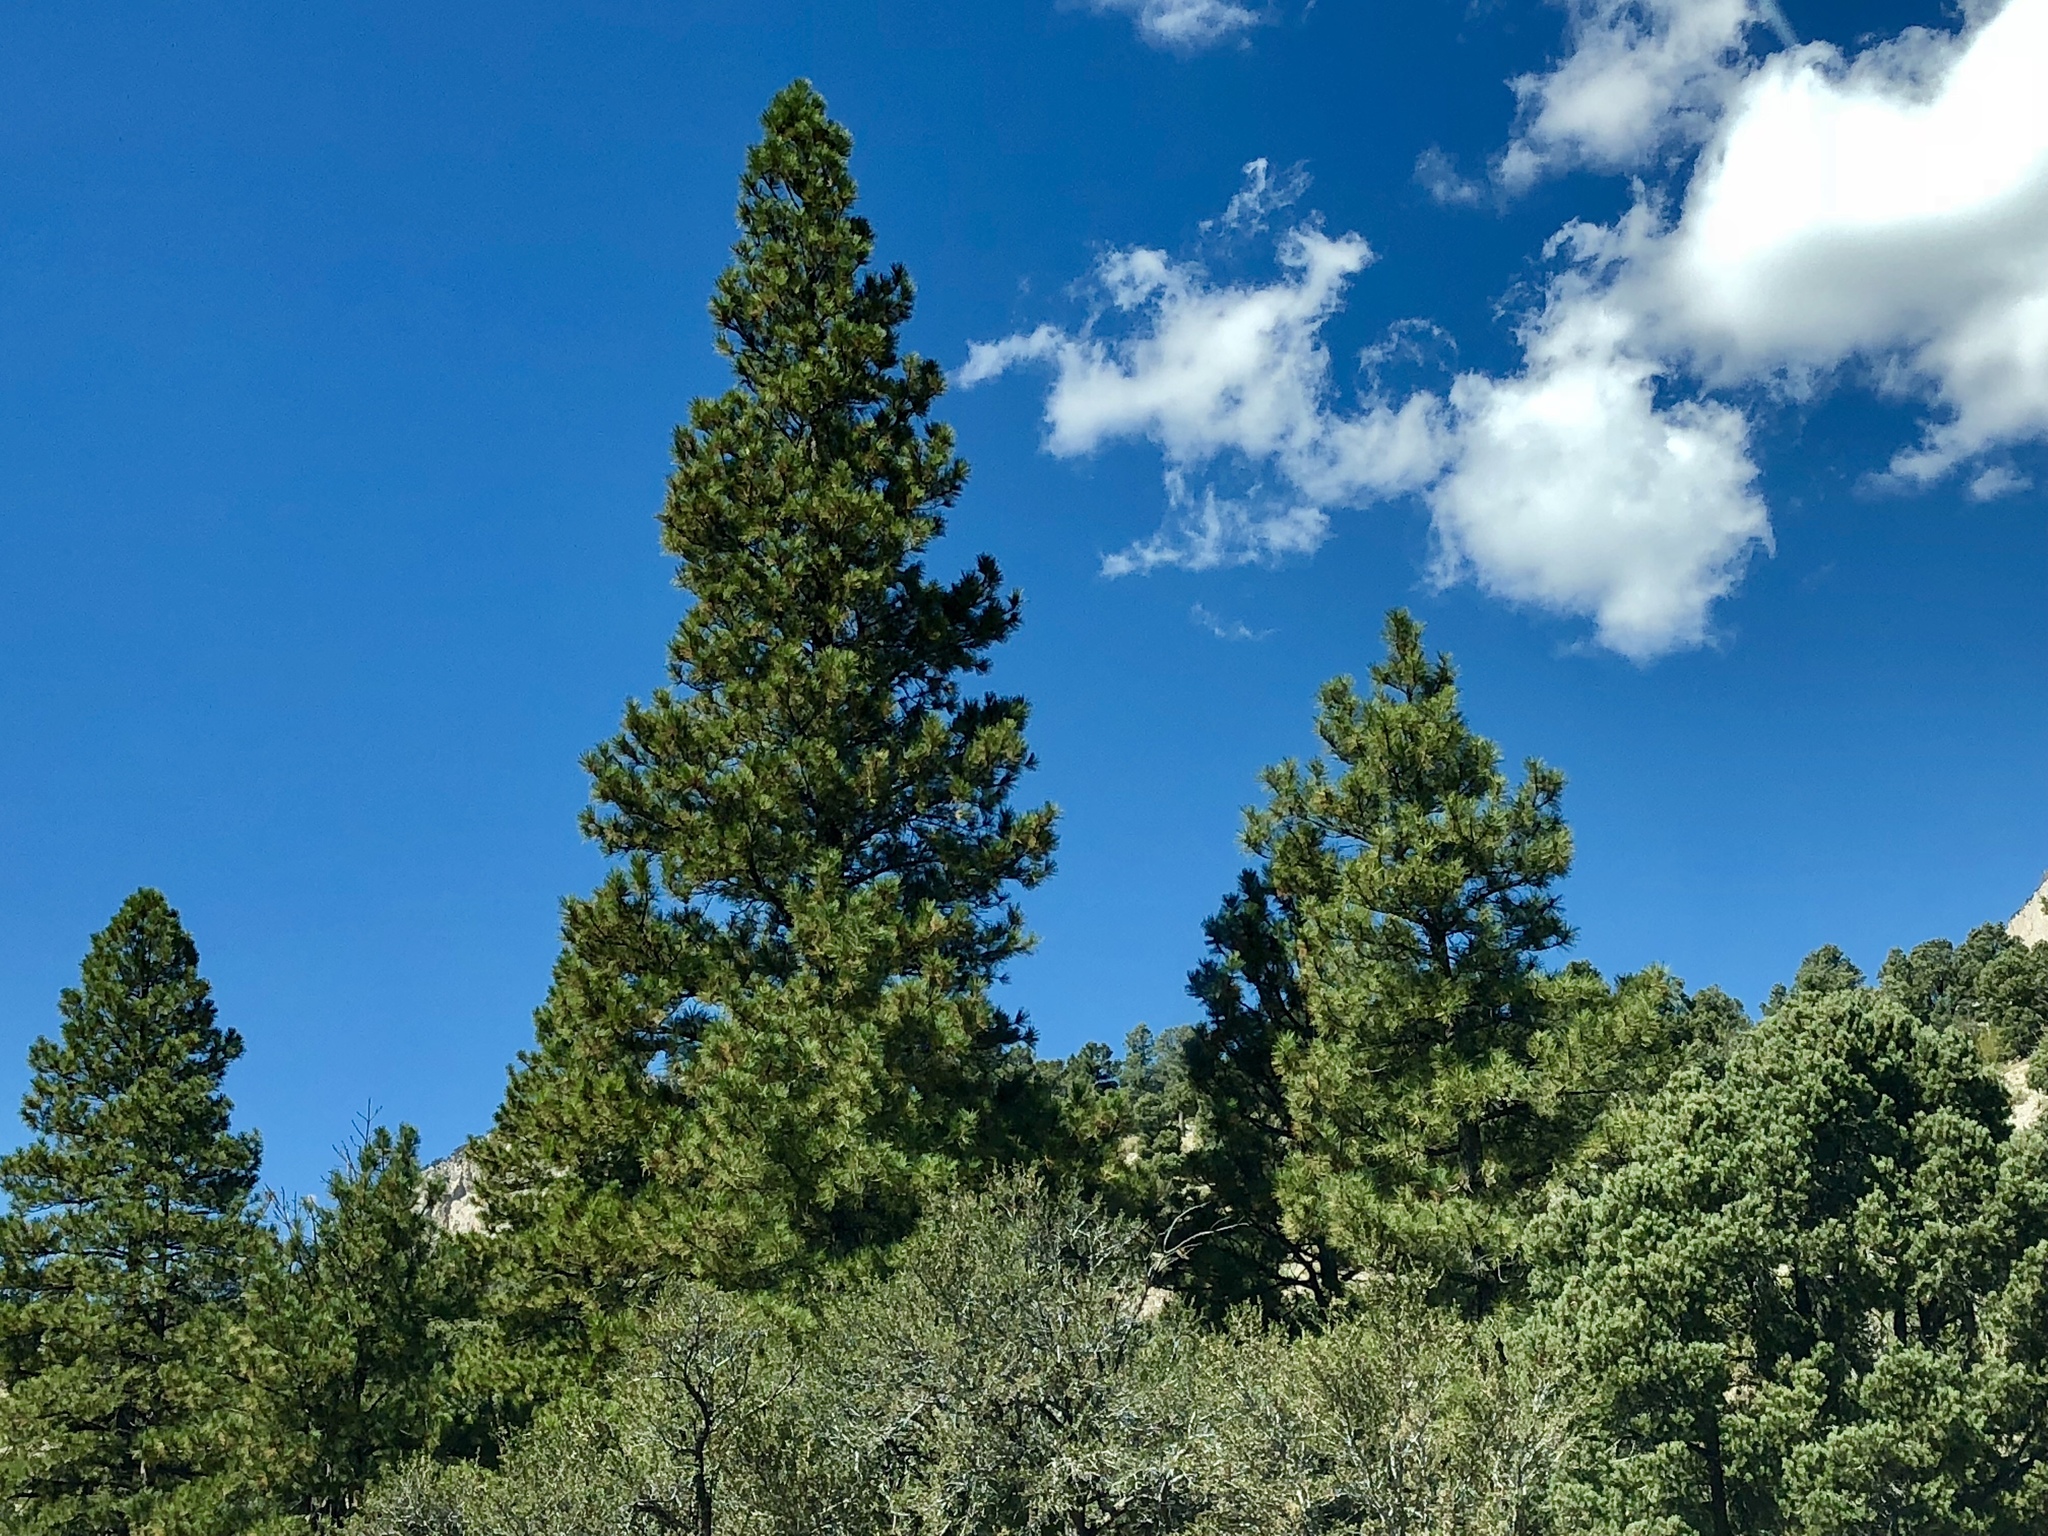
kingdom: Plantae
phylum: Tracheophyta
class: Pinopsida
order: Pinales
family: Pinaceae
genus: Pinus
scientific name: Pinus ponderosa
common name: Western yellow-pine
